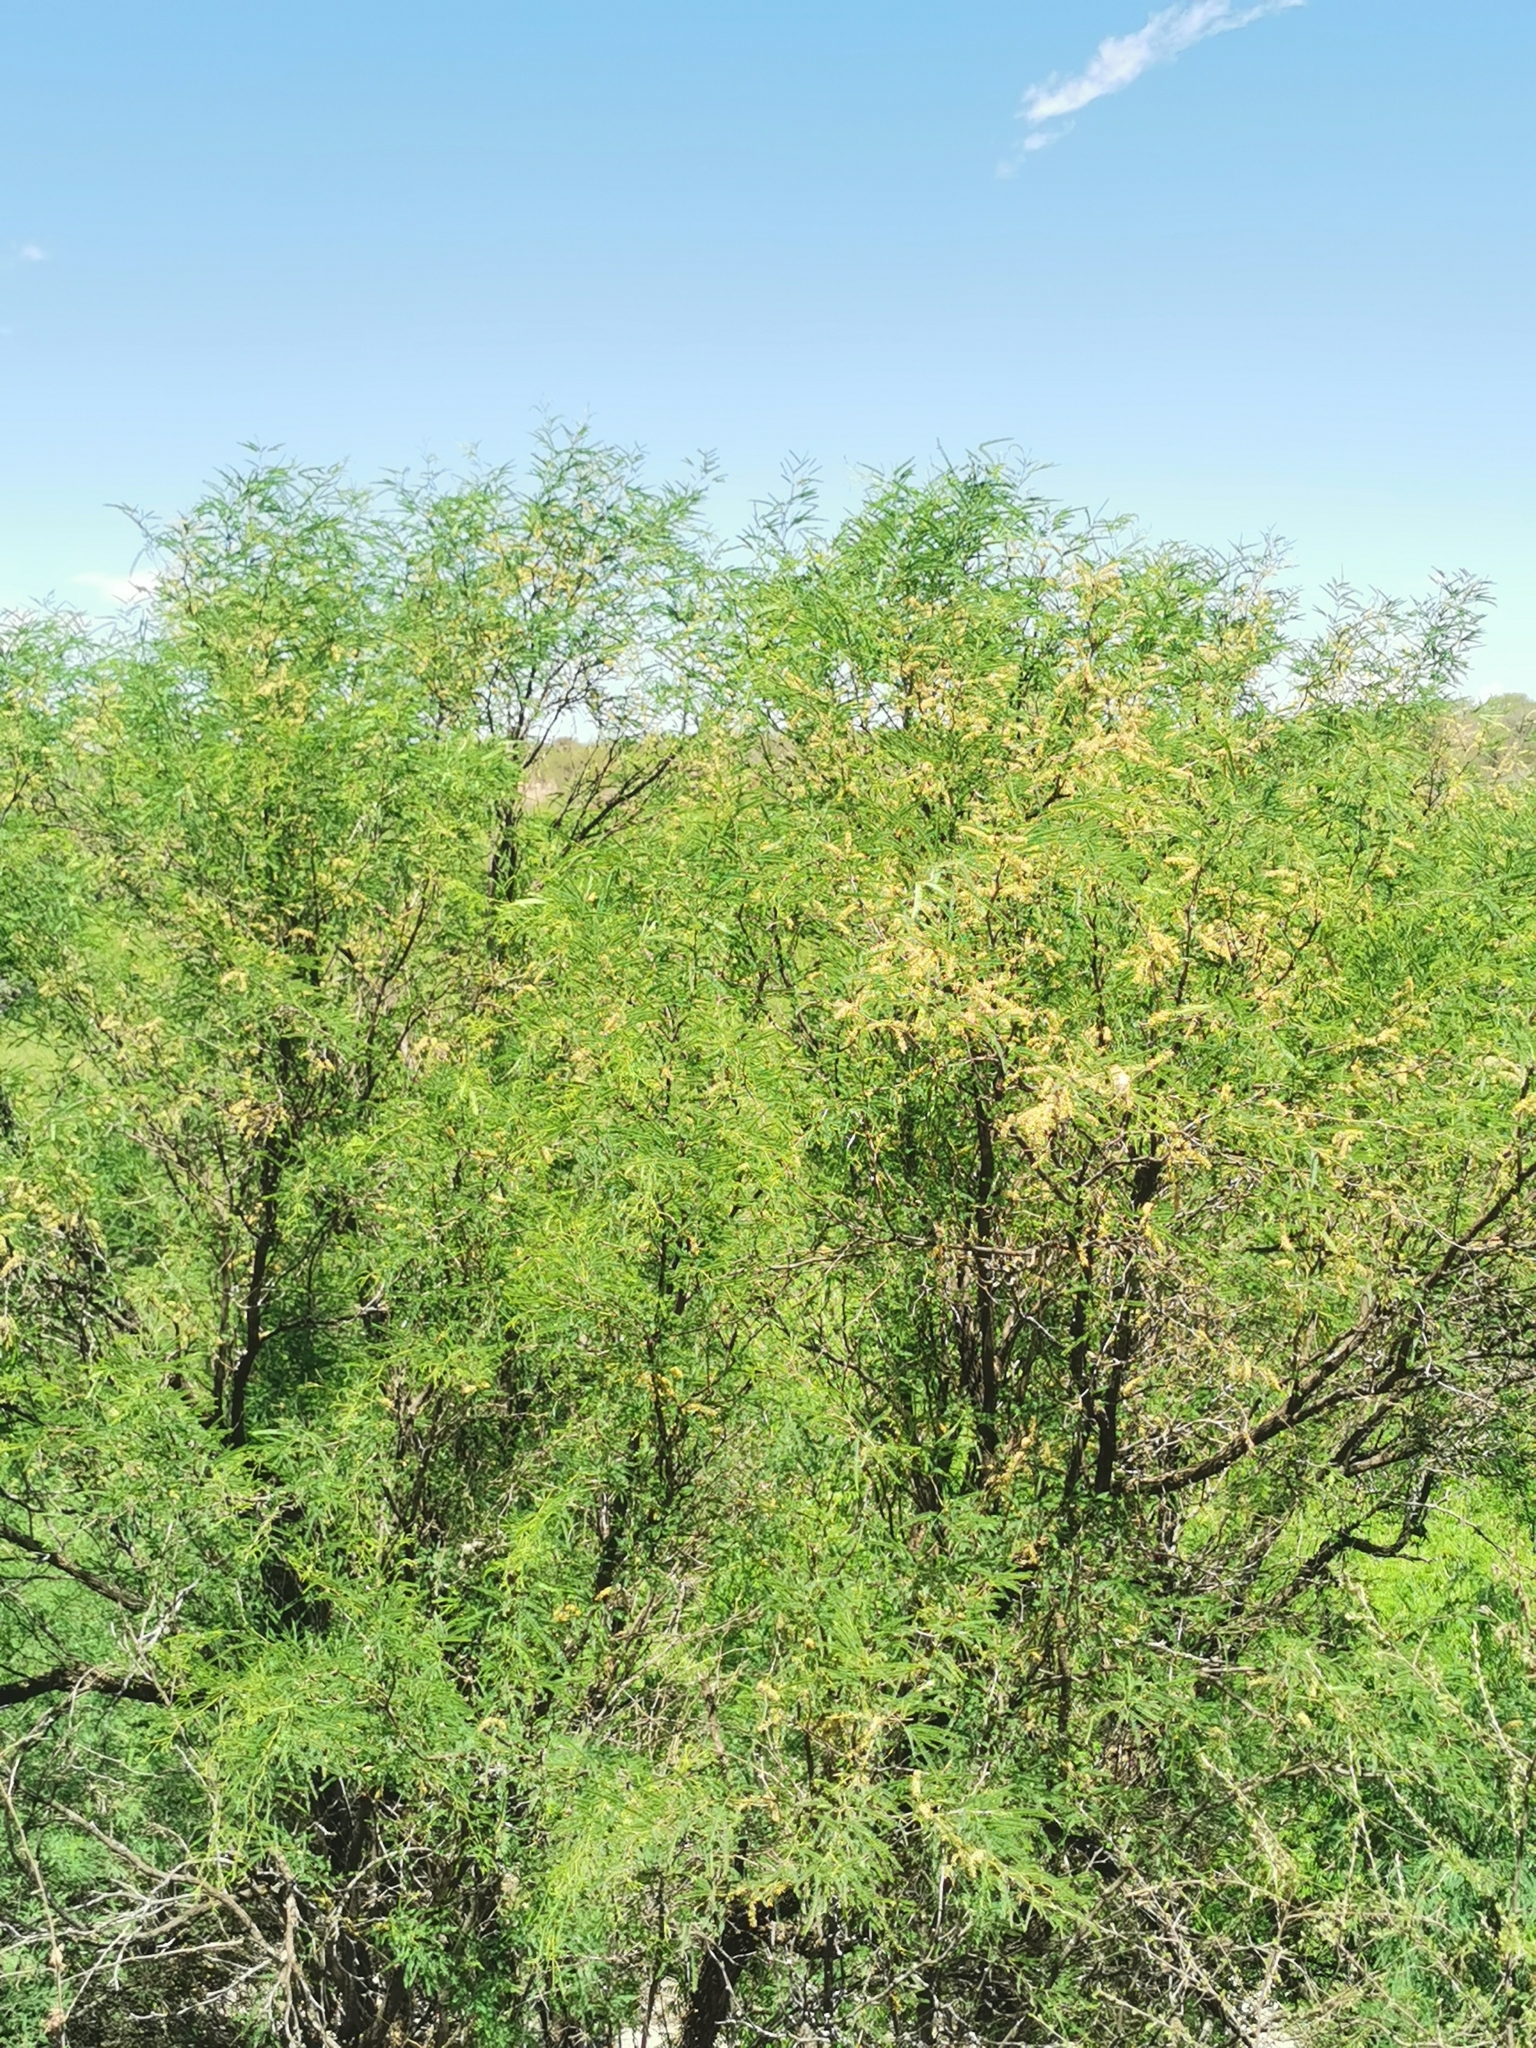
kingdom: Plantae
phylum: Tracheophyta
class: Magnoliopsida
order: Fabales
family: Fabaceae
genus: Prosopis
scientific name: Prosopis laevigata
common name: Smooth mesquite
